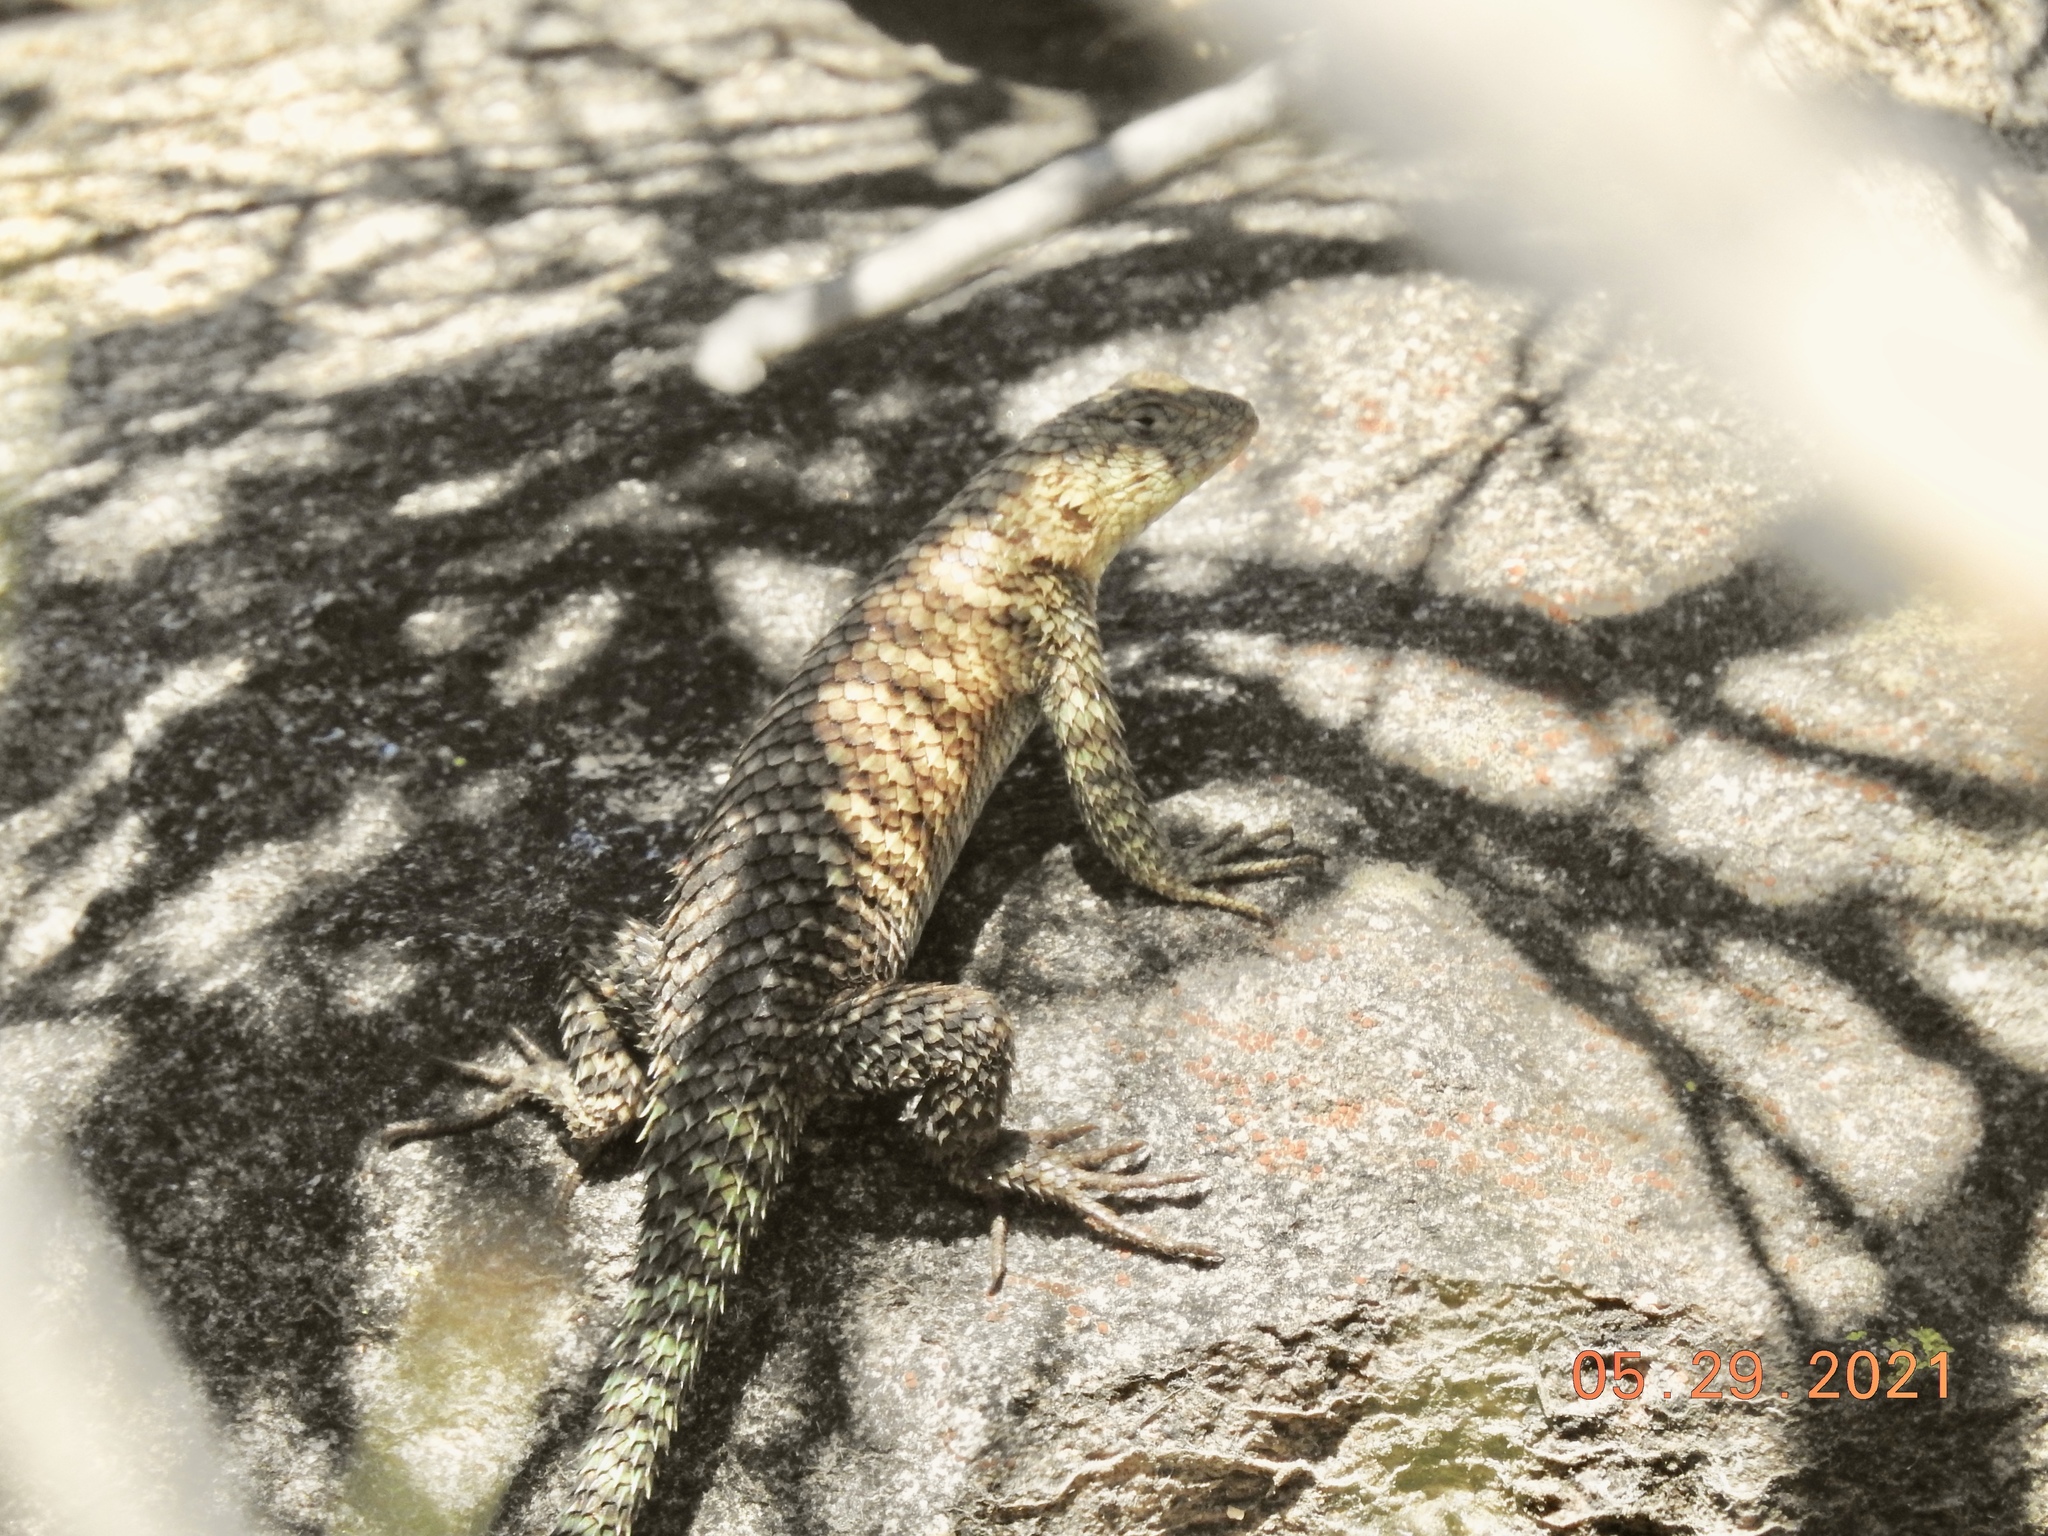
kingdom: Animalia
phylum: Chordata
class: Squamata
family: Phrynosomatidae
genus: Sceloporus
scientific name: Sceloporus orcutti
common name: Granite spiny lizard
